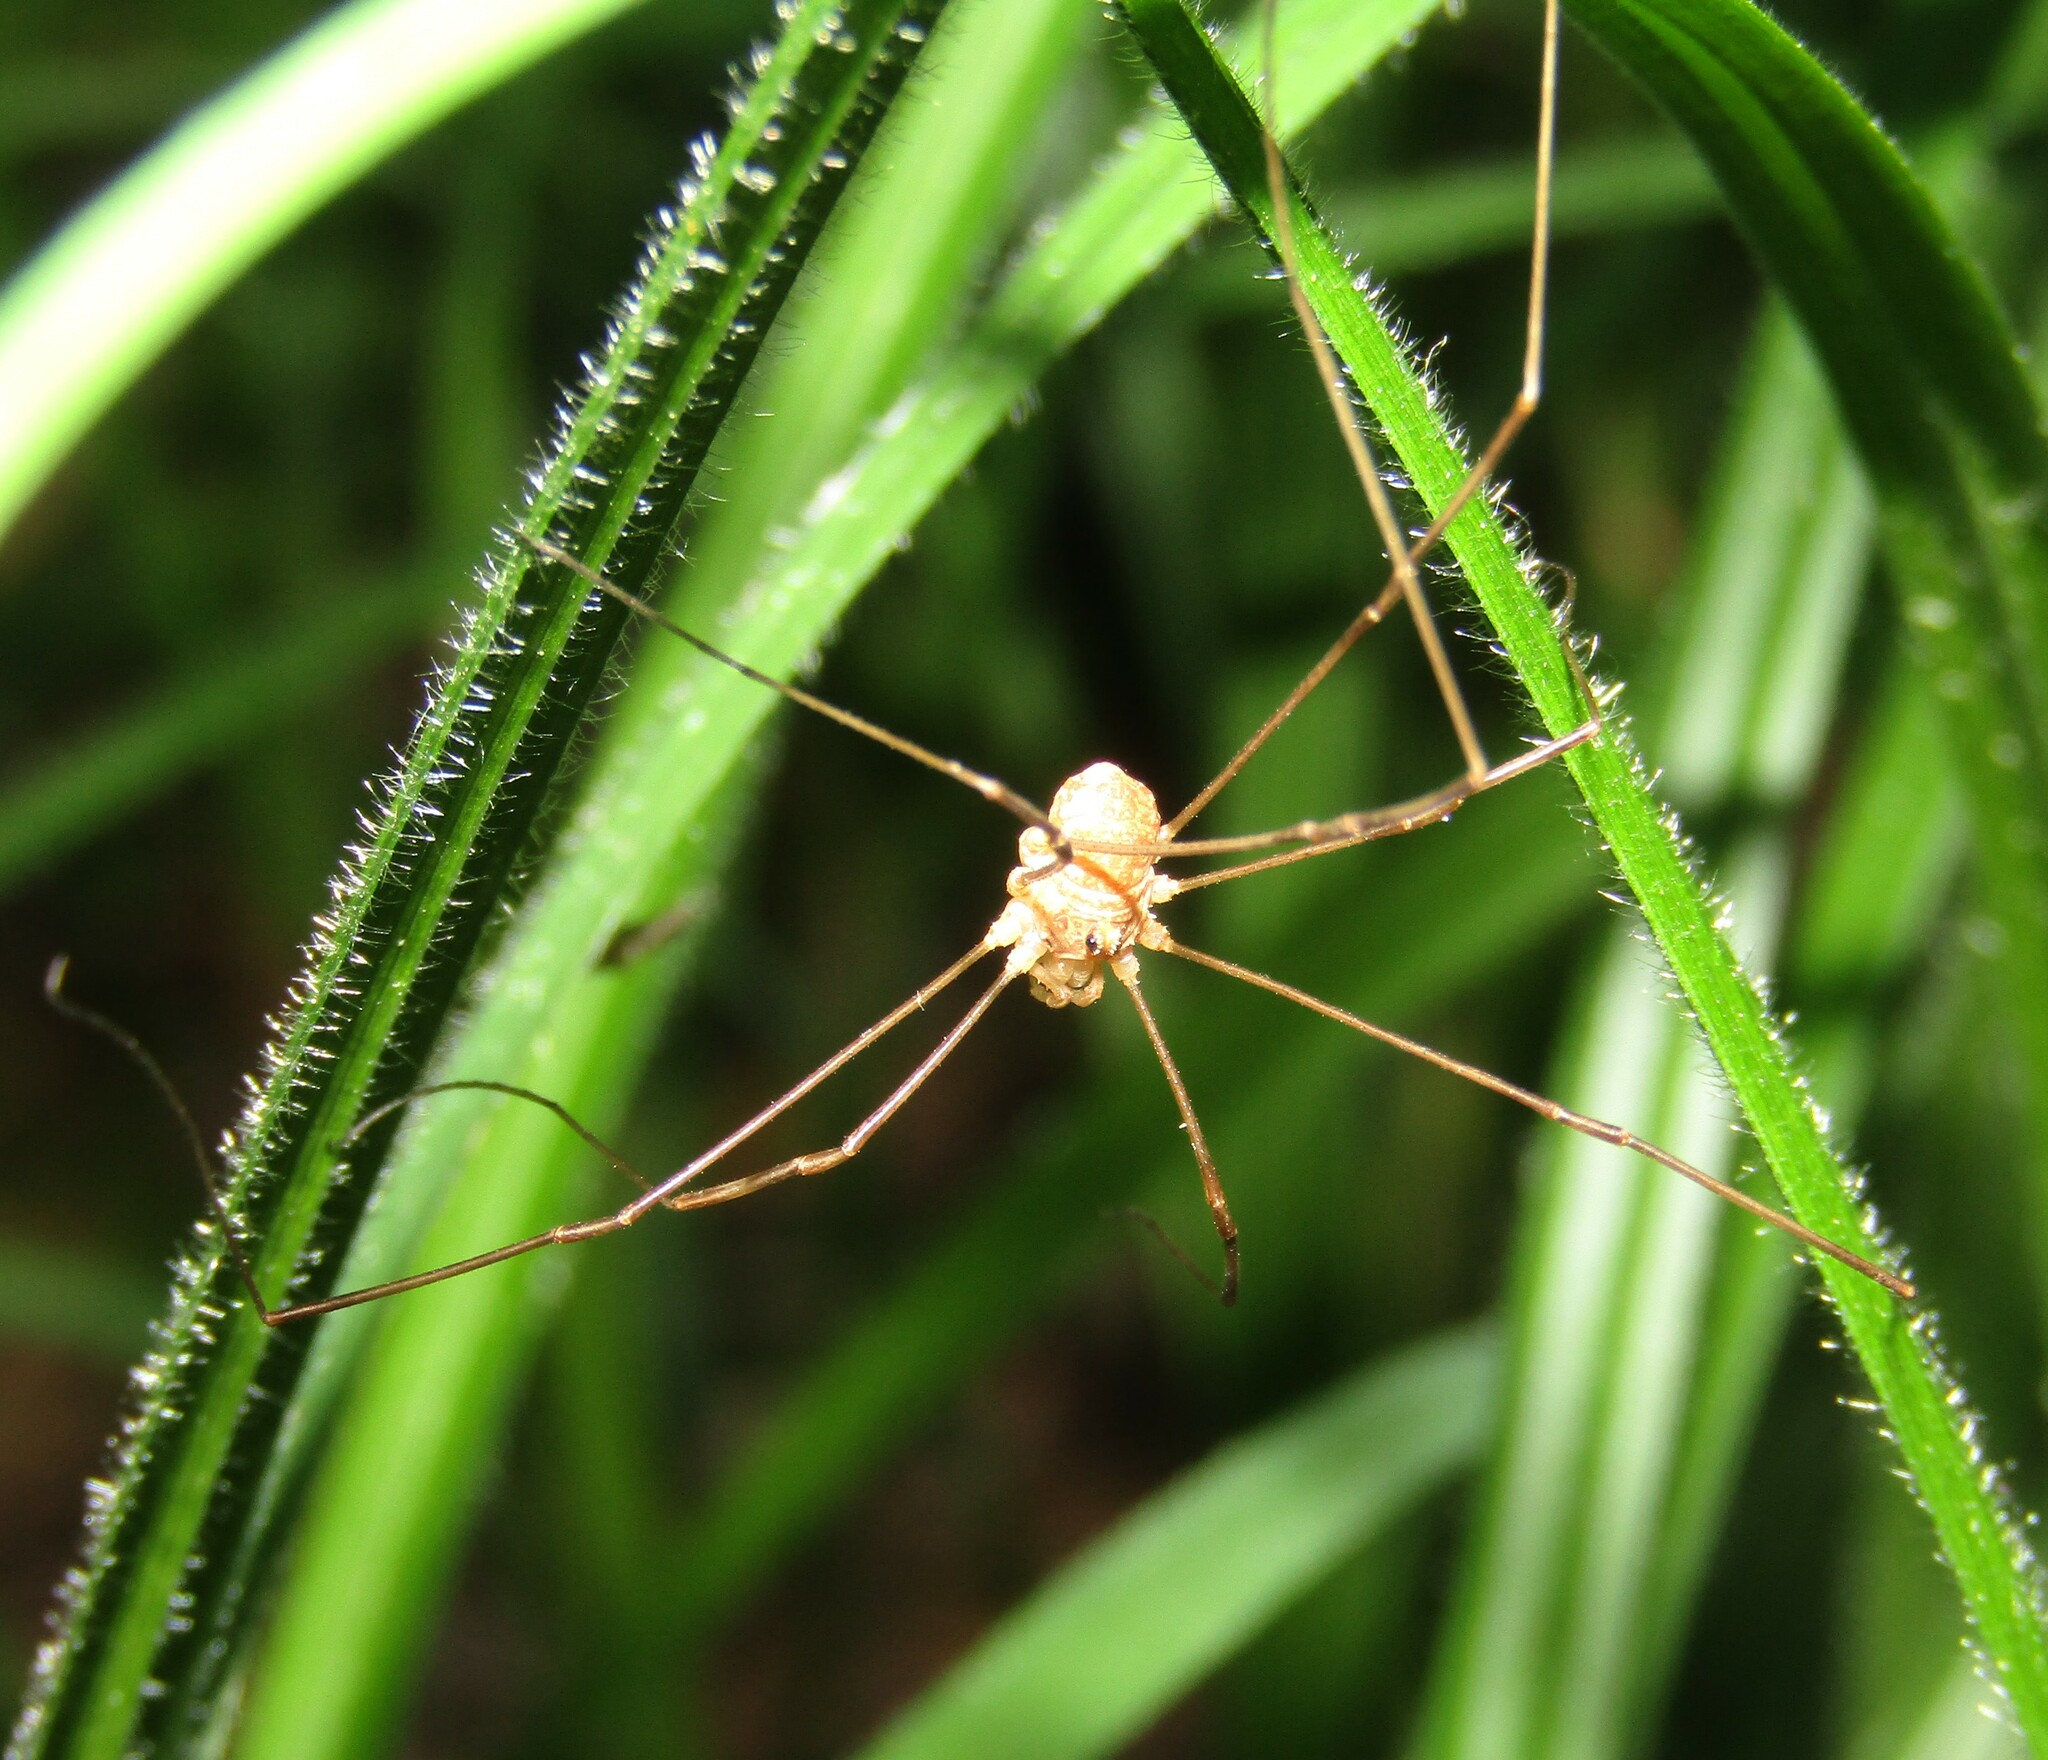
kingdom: Animalia
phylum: Arthropoda
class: Arachnida
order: Opiliones
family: Phalangiidae
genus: Rilaena
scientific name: Rilaena triangularis
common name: Spring harvestman
